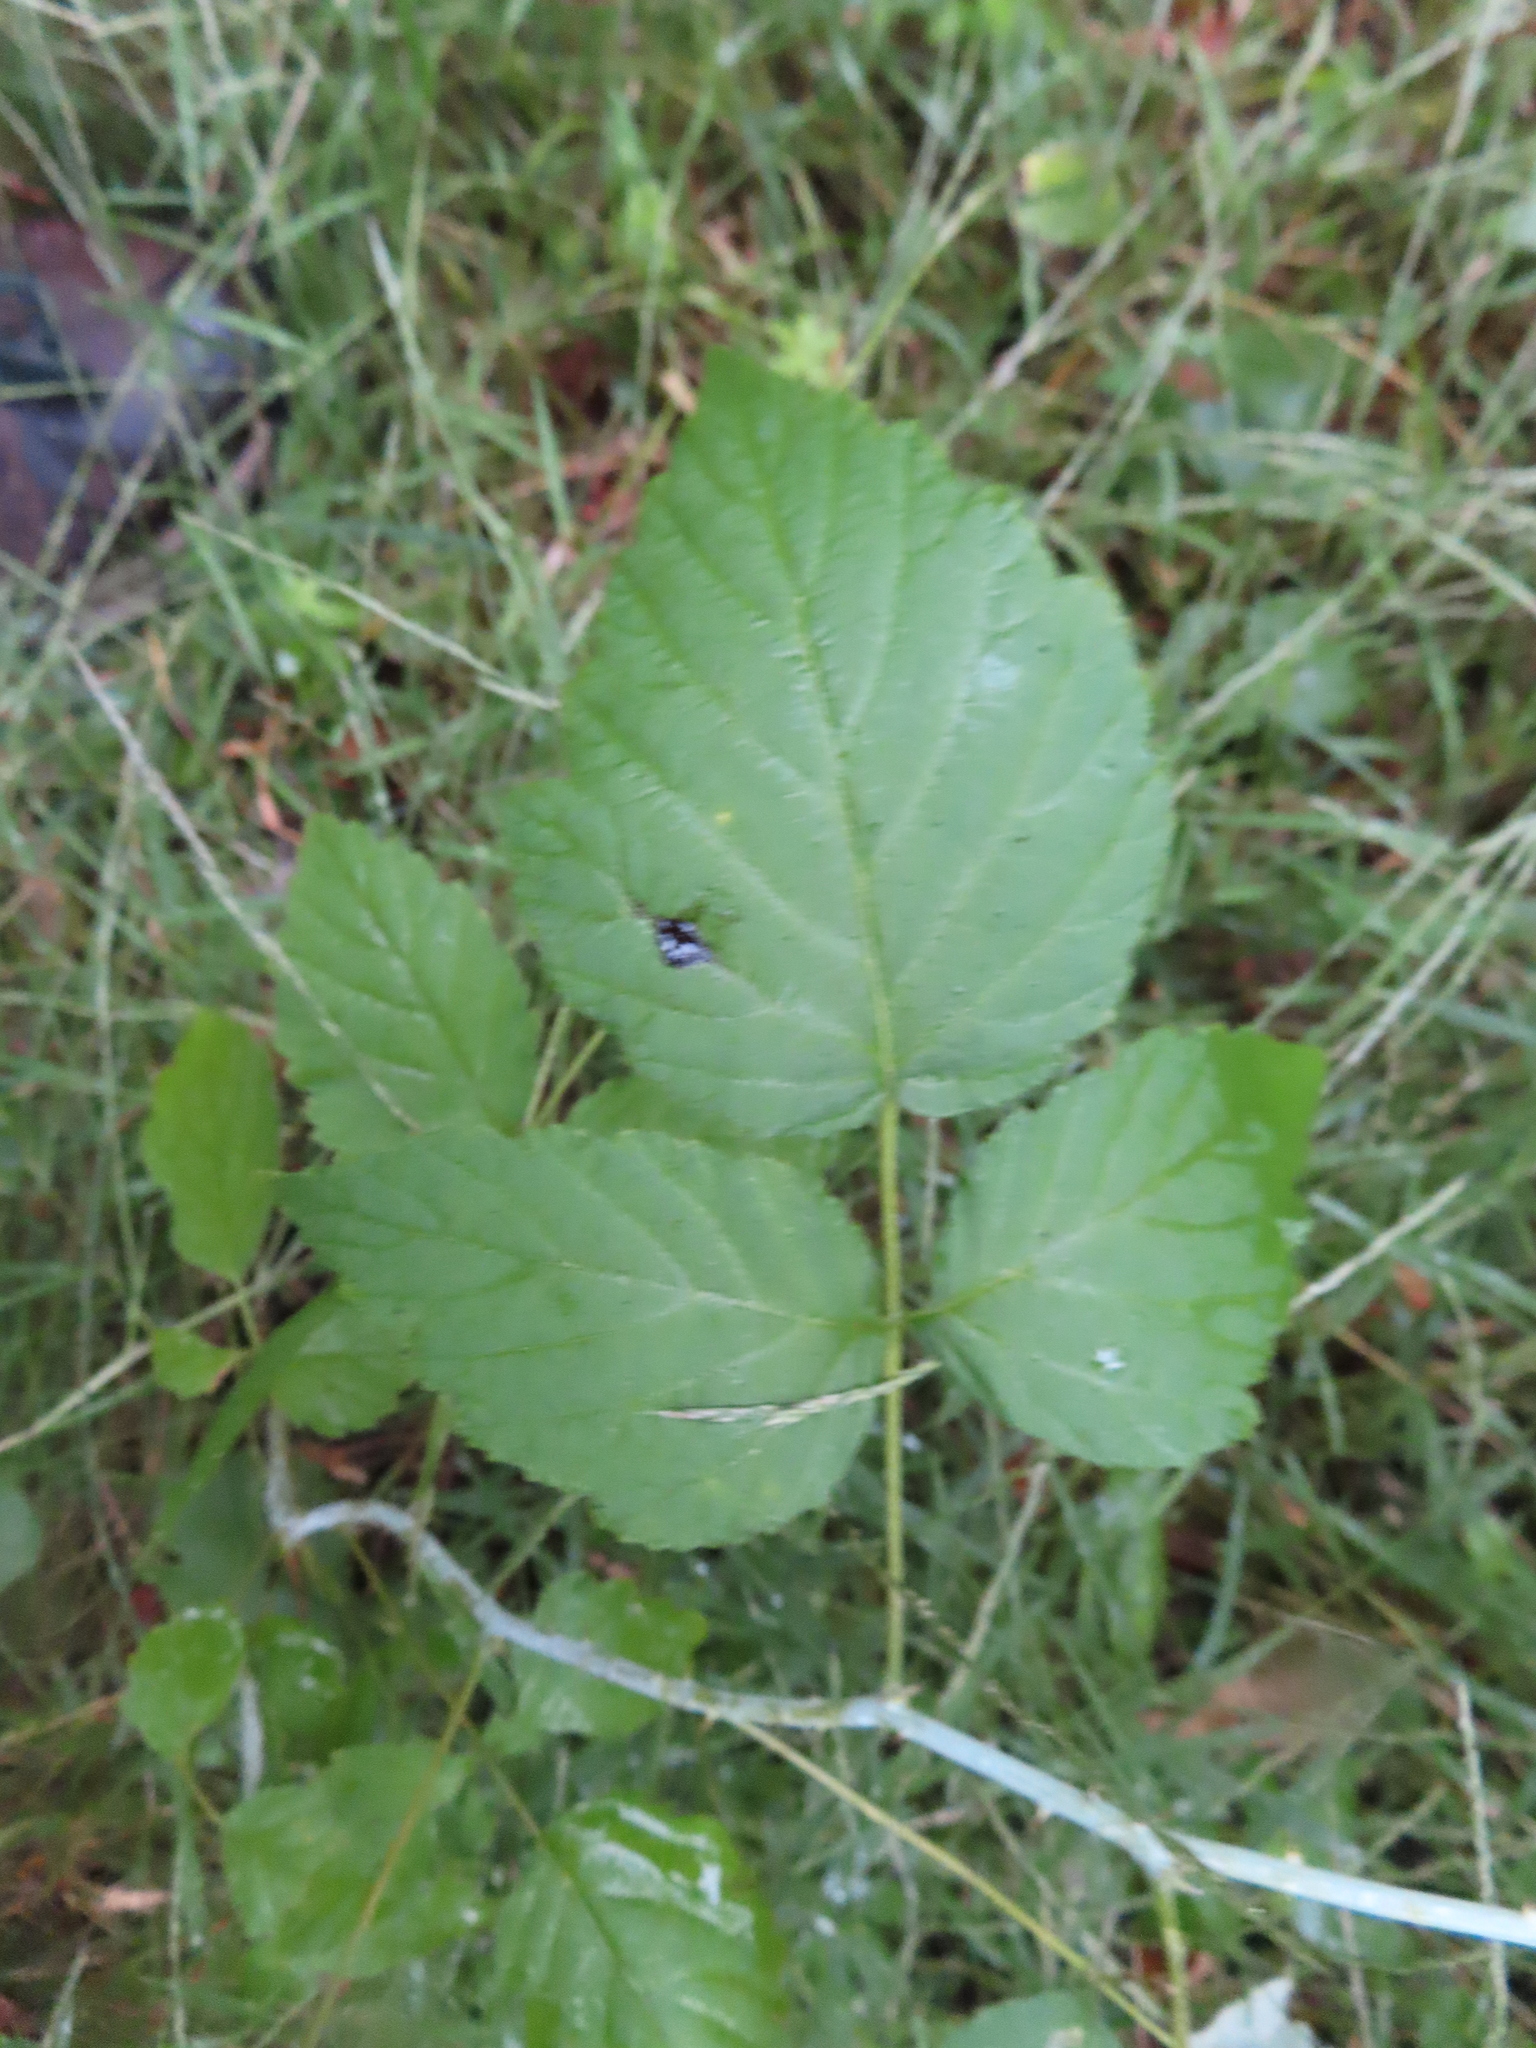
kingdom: Plantae
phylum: Tracheophyta
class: Magnoliopsida
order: Rosales
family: Rosaceae
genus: Rubus
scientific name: Rubus occidentalis
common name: Black raspberry
